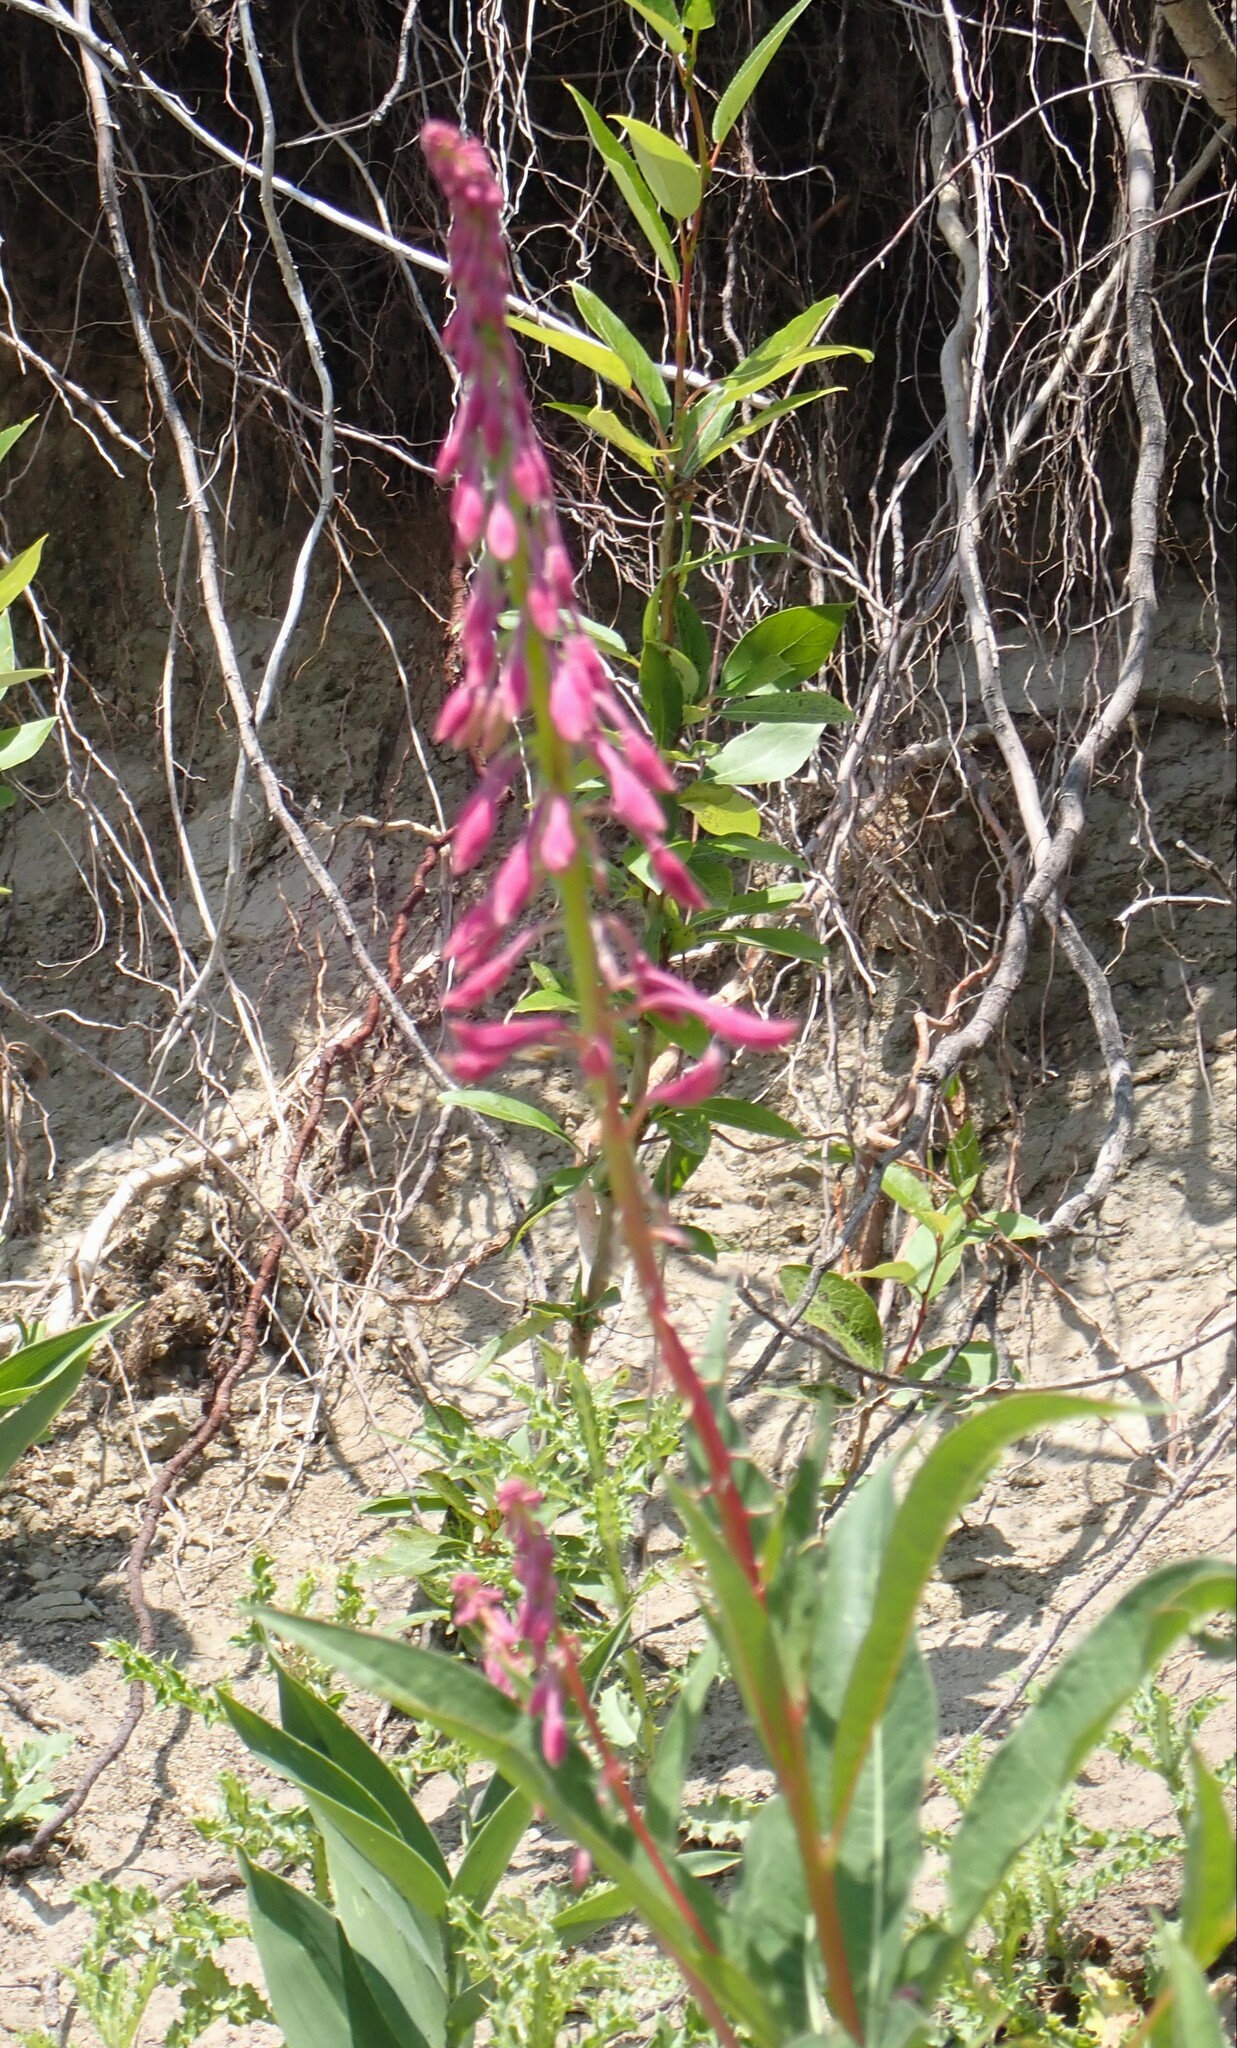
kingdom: Plantae
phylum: Tracheophyta
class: Magnoliopsida
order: Myrtales
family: Onagraceae
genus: Chamaenerion
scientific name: Chamaenerion angustifolium
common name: Fireweed
